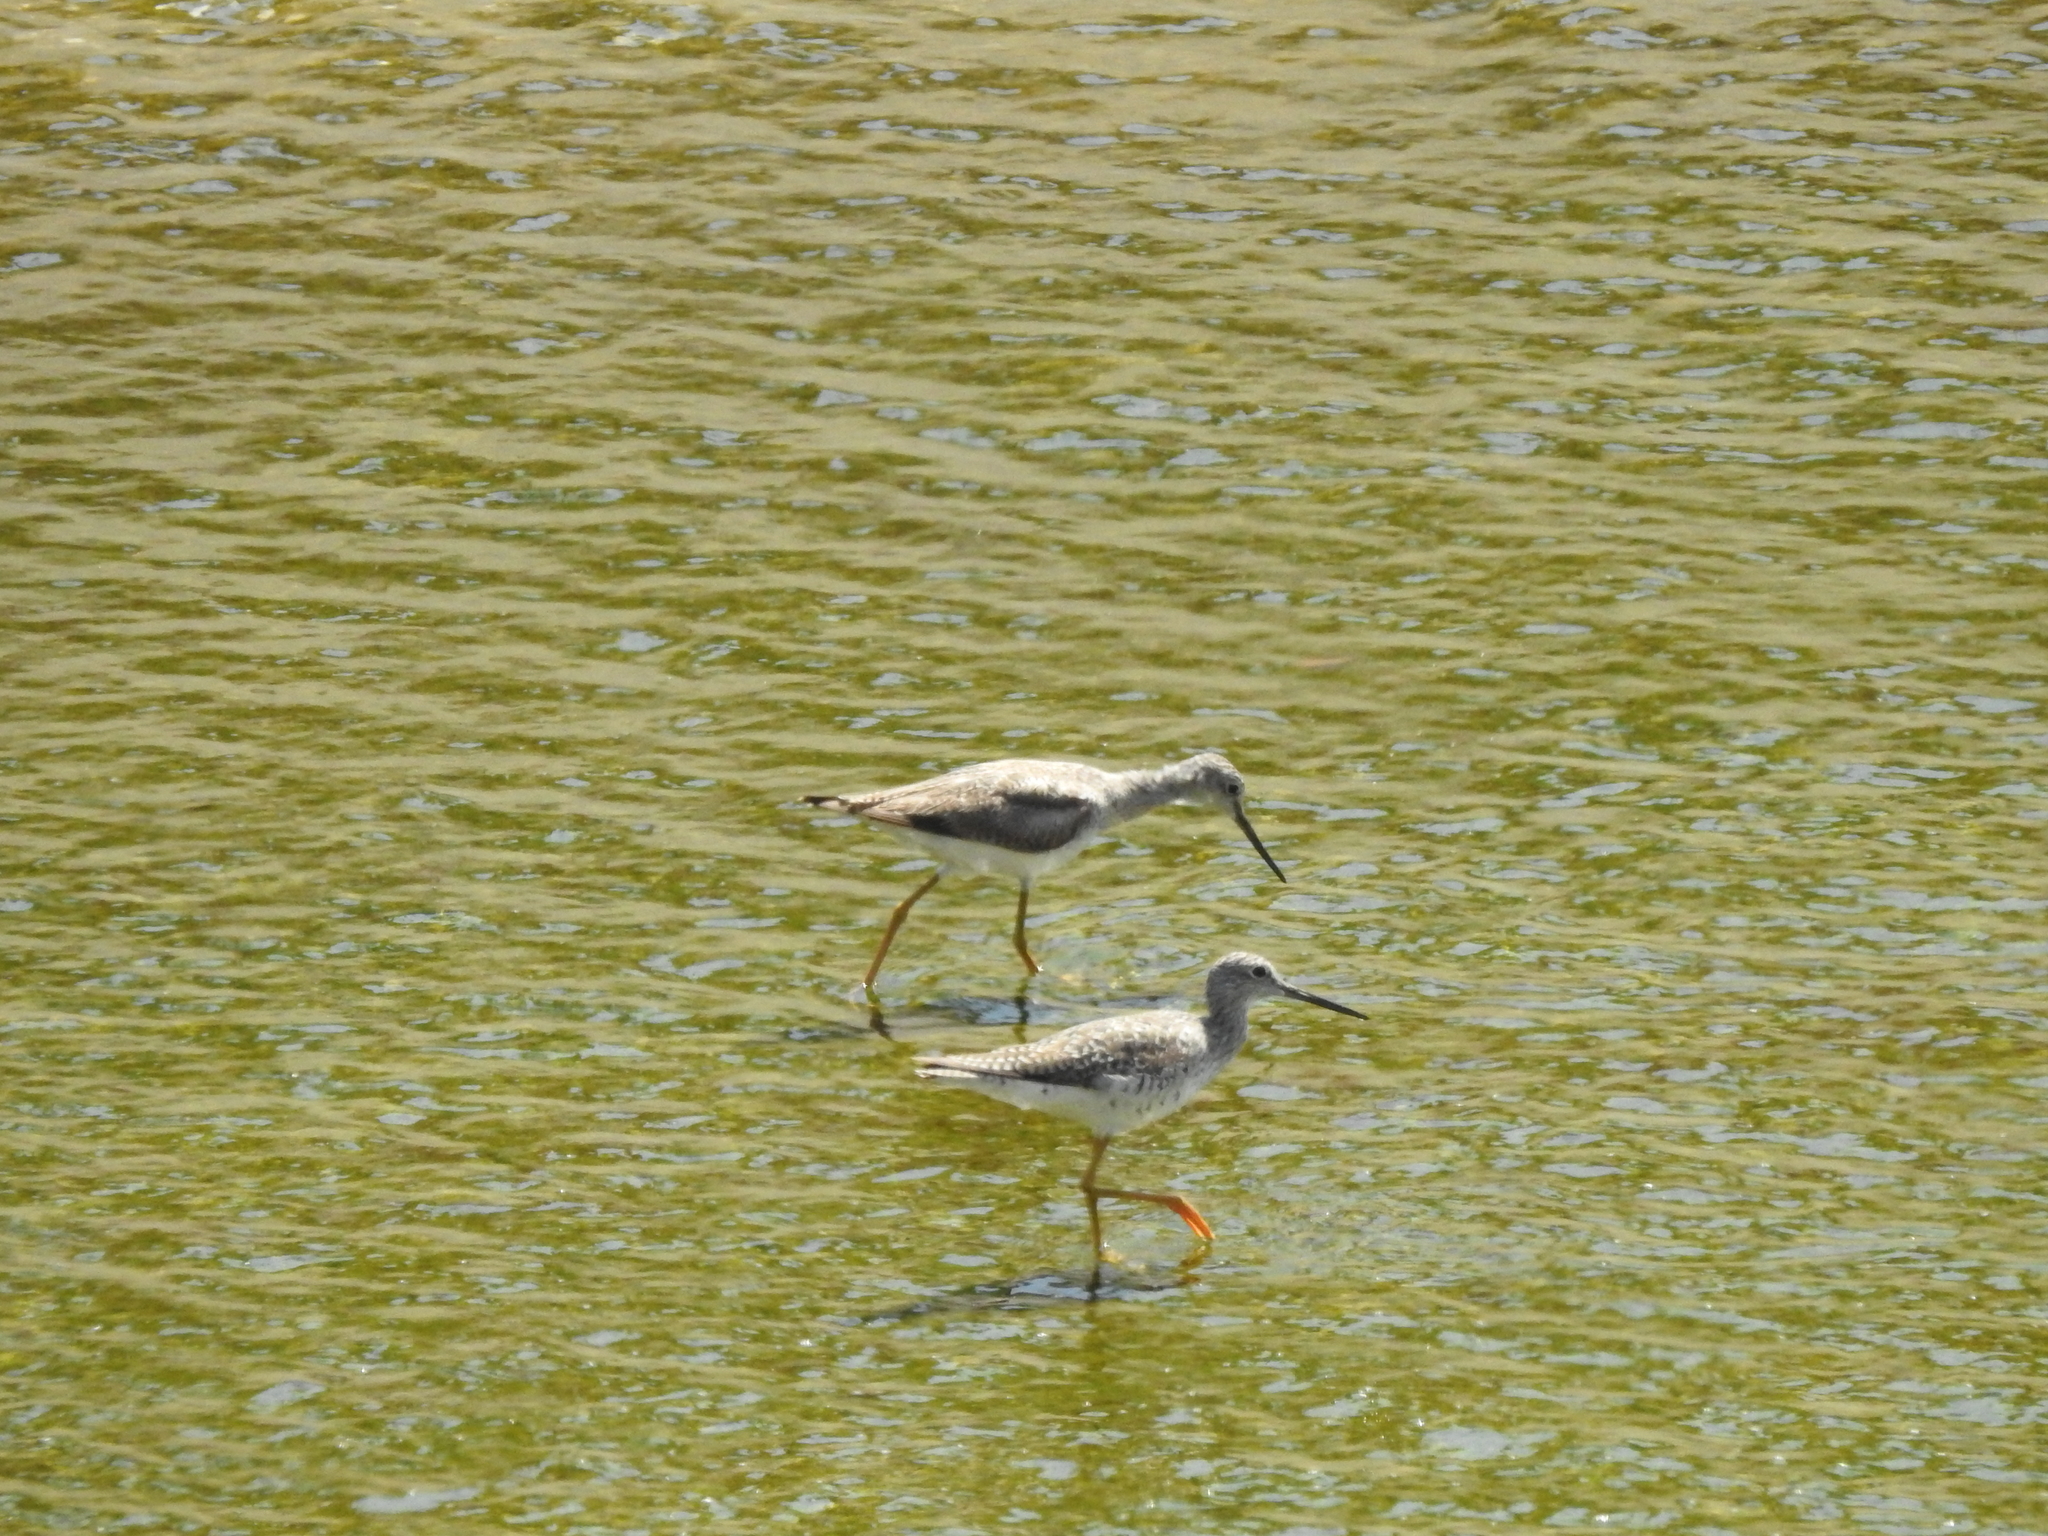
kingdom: Animalia
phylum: Chordata
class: Aves
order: Charadriiformes
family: Scolopacidae
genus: Tringa
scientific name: Tringa melanoleuca
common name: Greater yellowlegs
